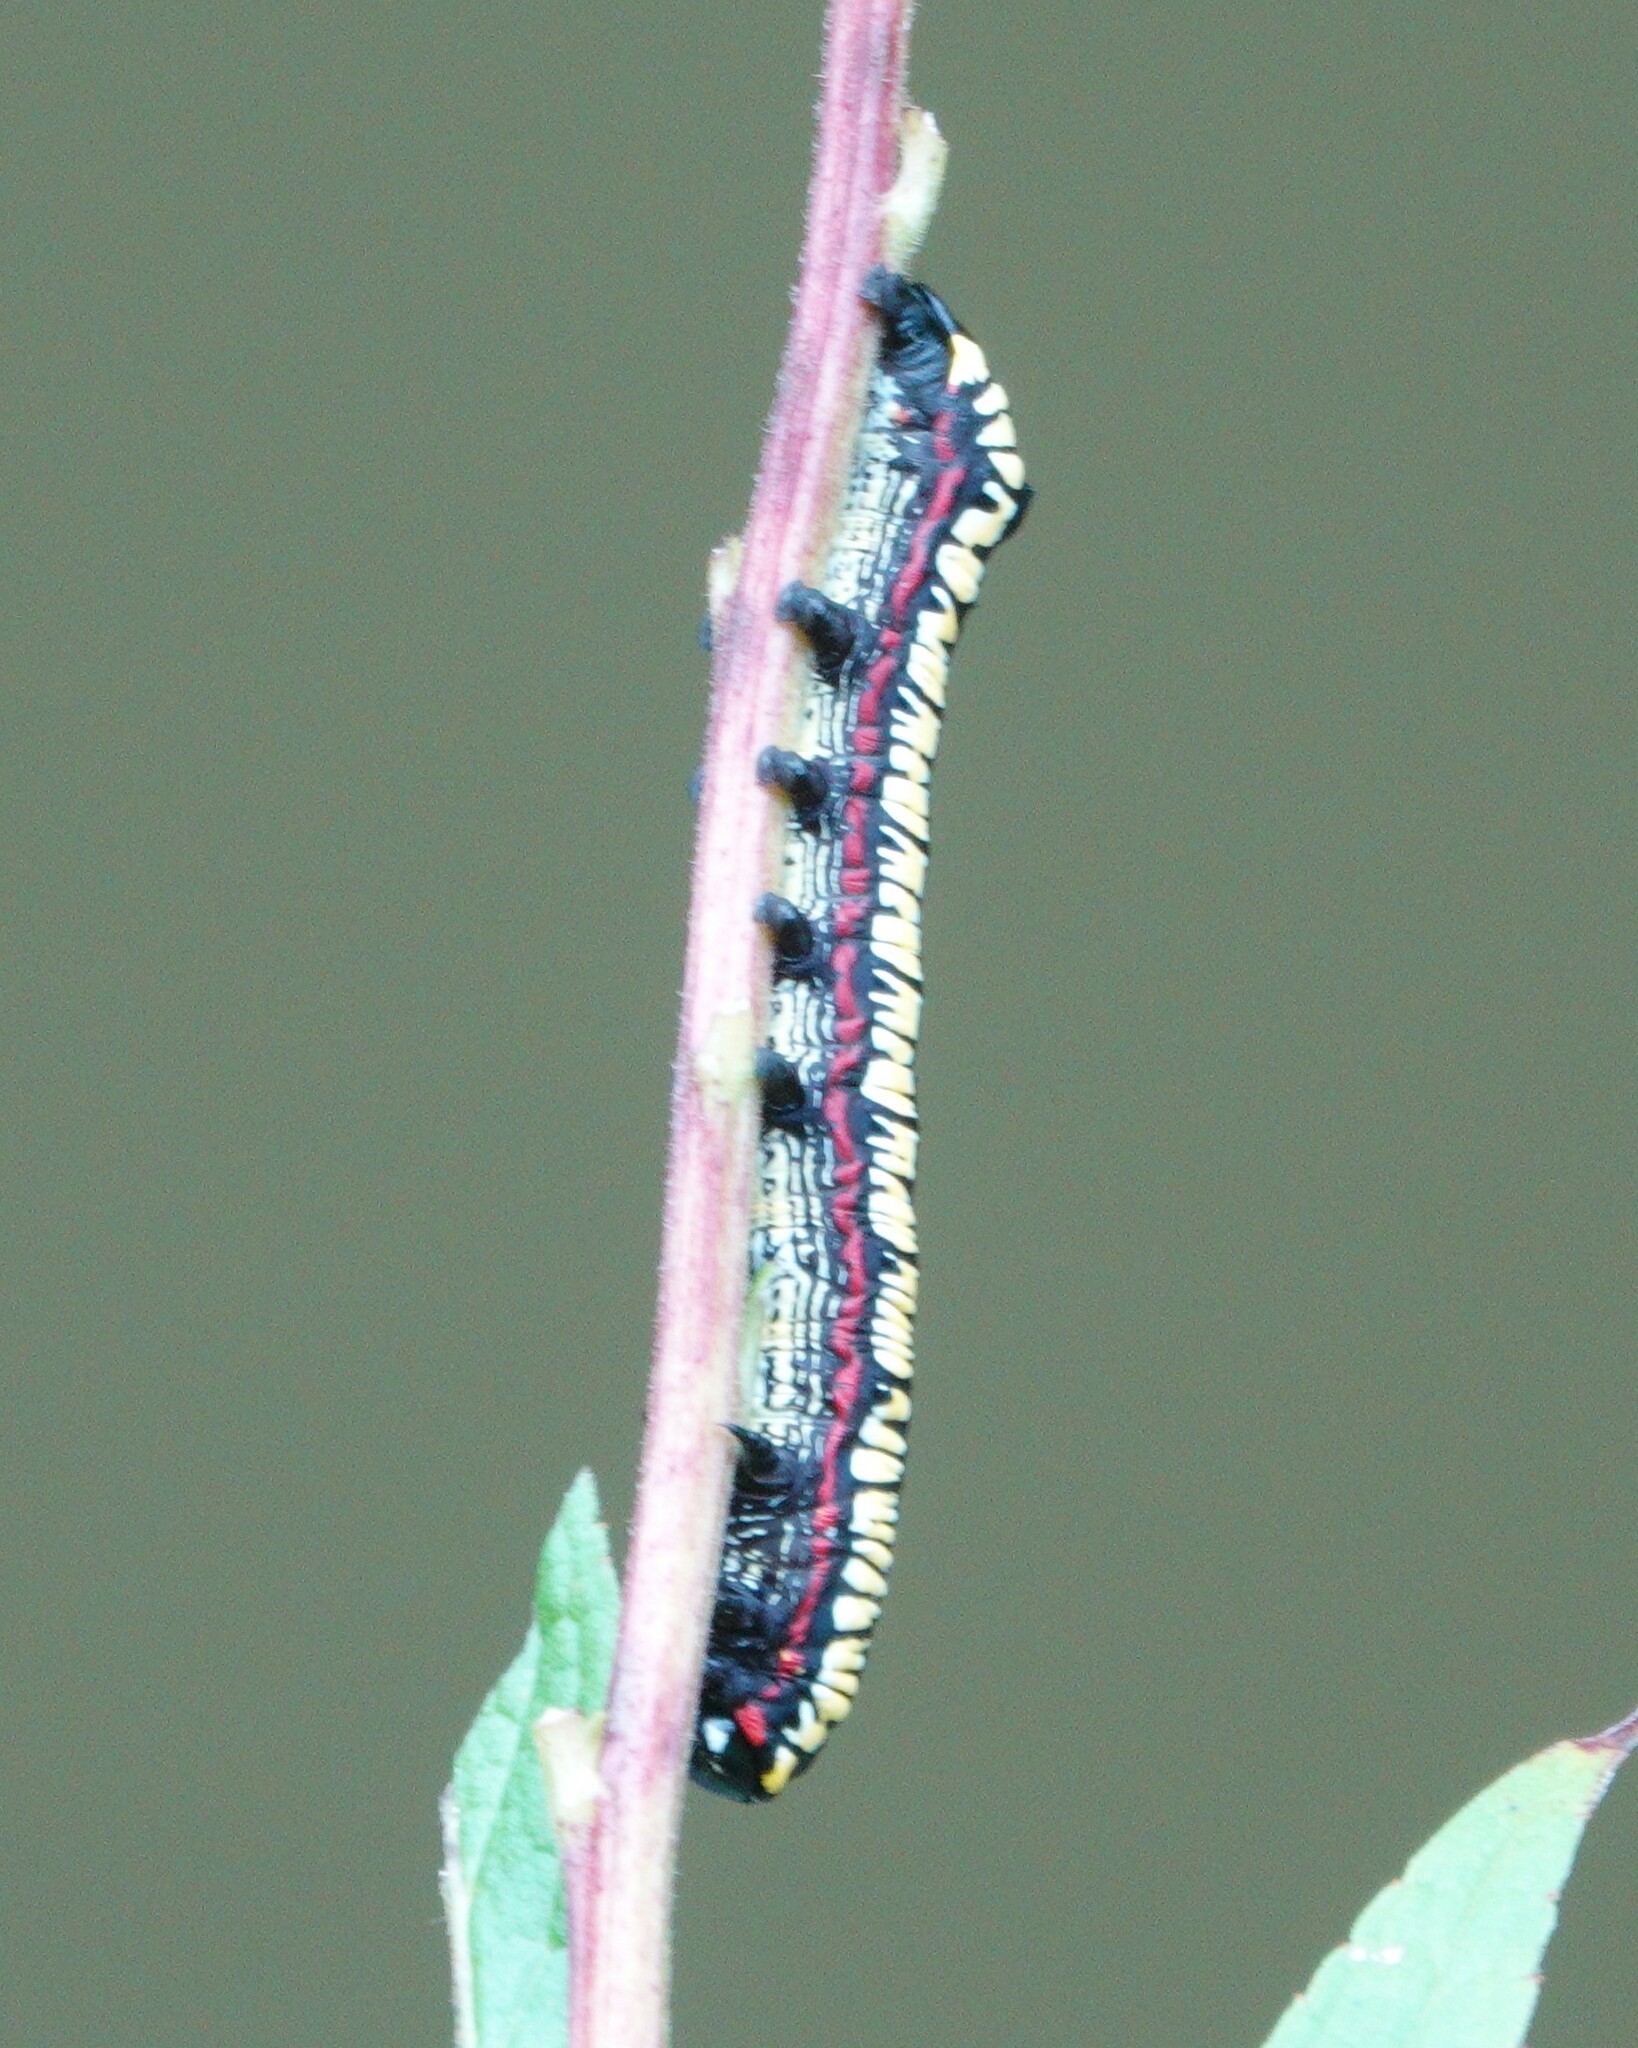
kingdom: Animalia
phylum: Arthropoda
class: Insecta
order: Lepidoptera
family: Noctuidae
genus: Cucullia
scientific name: Cucullia convexipennis
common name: Brown-hooded owlet
